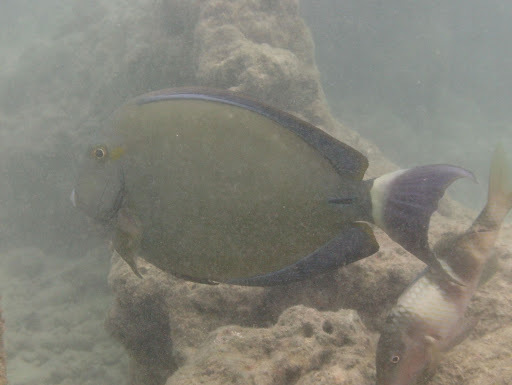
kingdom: Animalia
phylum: Chordata
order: Perciformes
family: Acanthuridae
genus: Acanthurus
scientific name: Acanthurus blochii
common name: Blue-banded pualu
